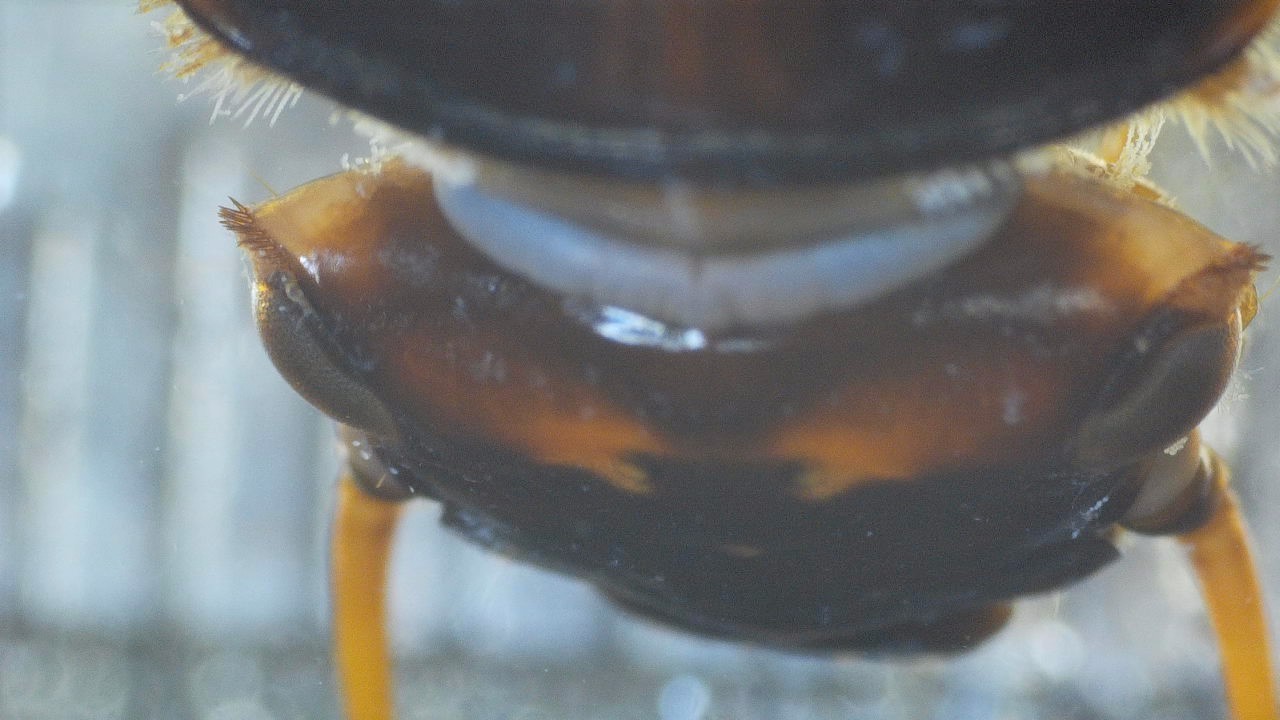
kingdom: Animalia
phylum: Arthropoda
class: Insecta
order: Plecoptera
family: Perlidae
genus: Acroneuria
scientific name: Acroneuria lycorias
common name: Boreal stone
